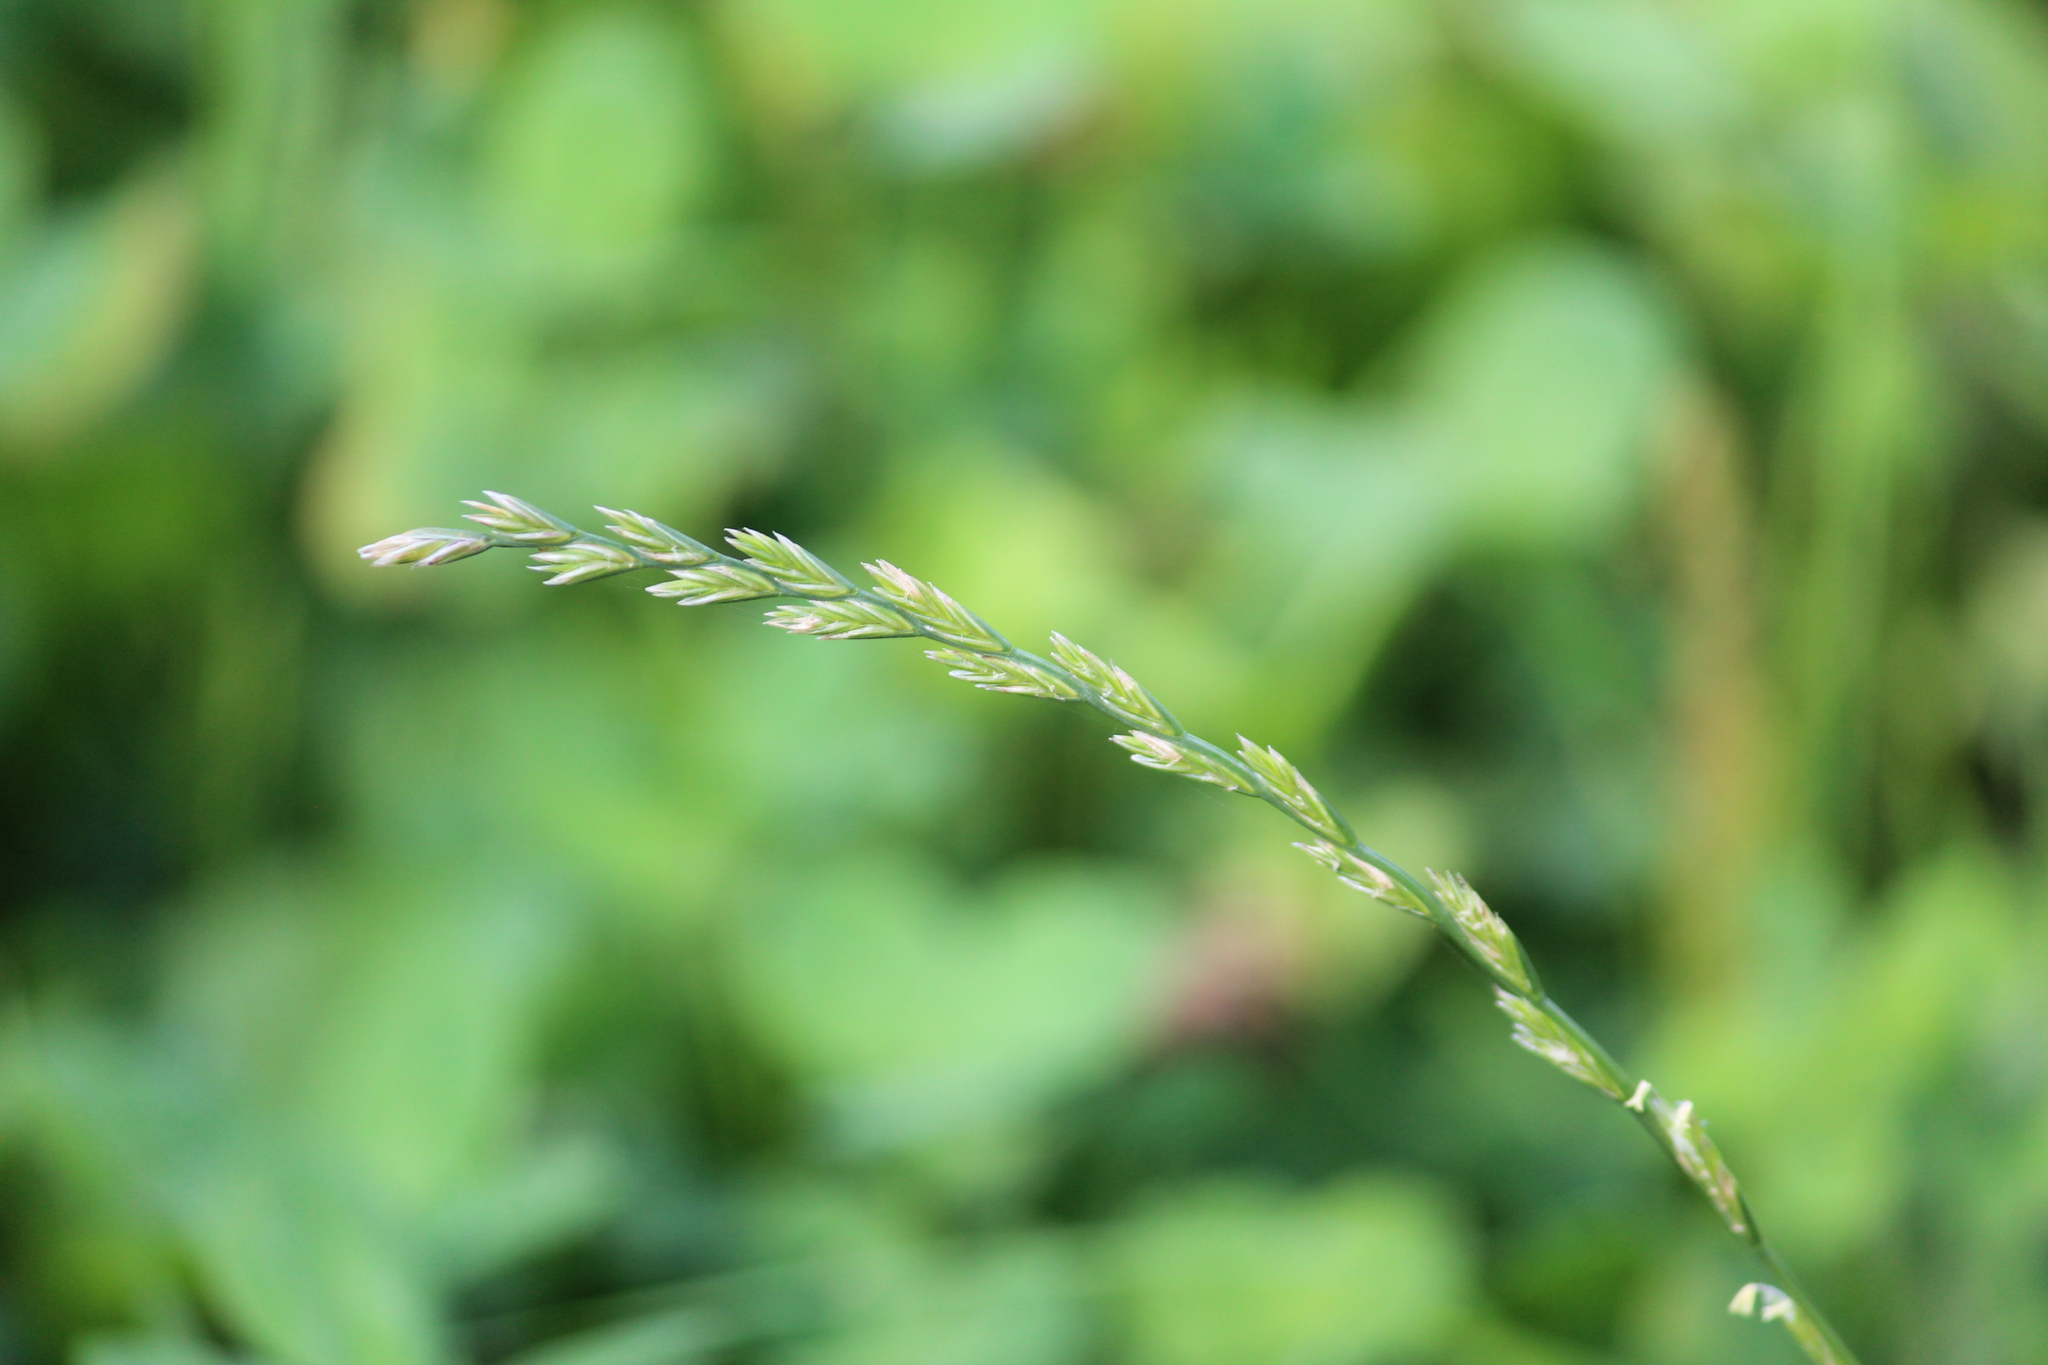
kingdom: Plantae
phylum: Tracheophyta
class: Liliopsida
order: Poales
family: Poaceae
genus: Lolium
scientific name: Lolium perenne
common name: Perennial ryegrass
